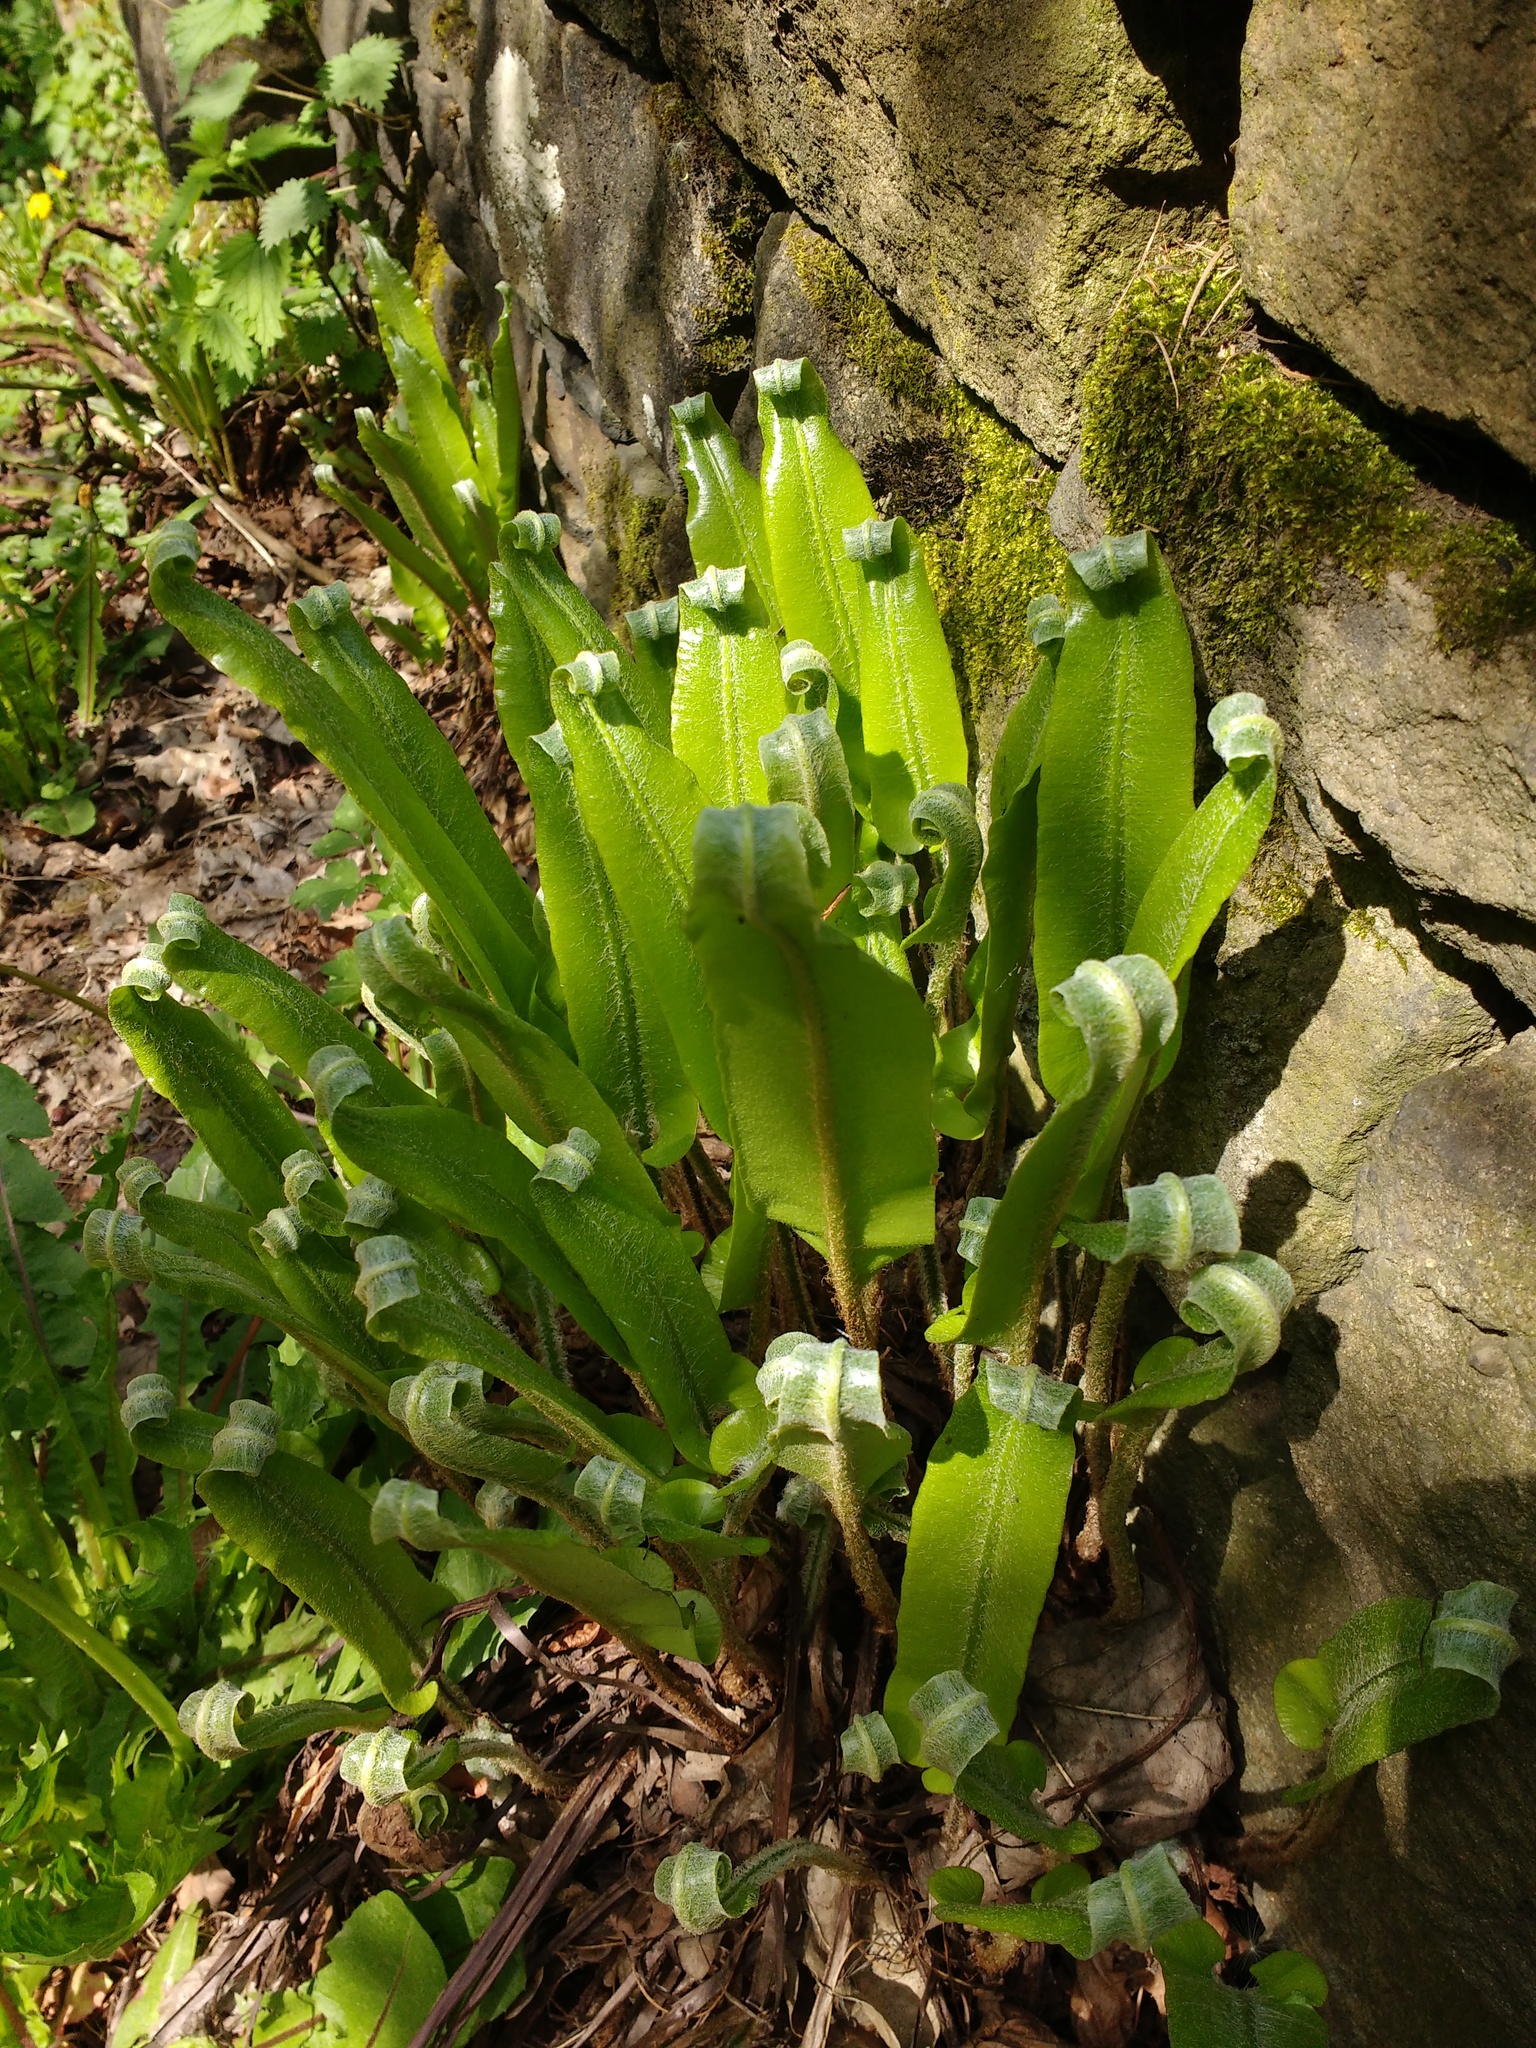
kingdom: Plantae
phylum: Tracheophyta
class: Polypodiopsida
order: Polypodiales
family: Aspleniaceae
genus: Asplenium
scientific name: Asplenium scolopendrium
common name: Hart's-tongue fern
